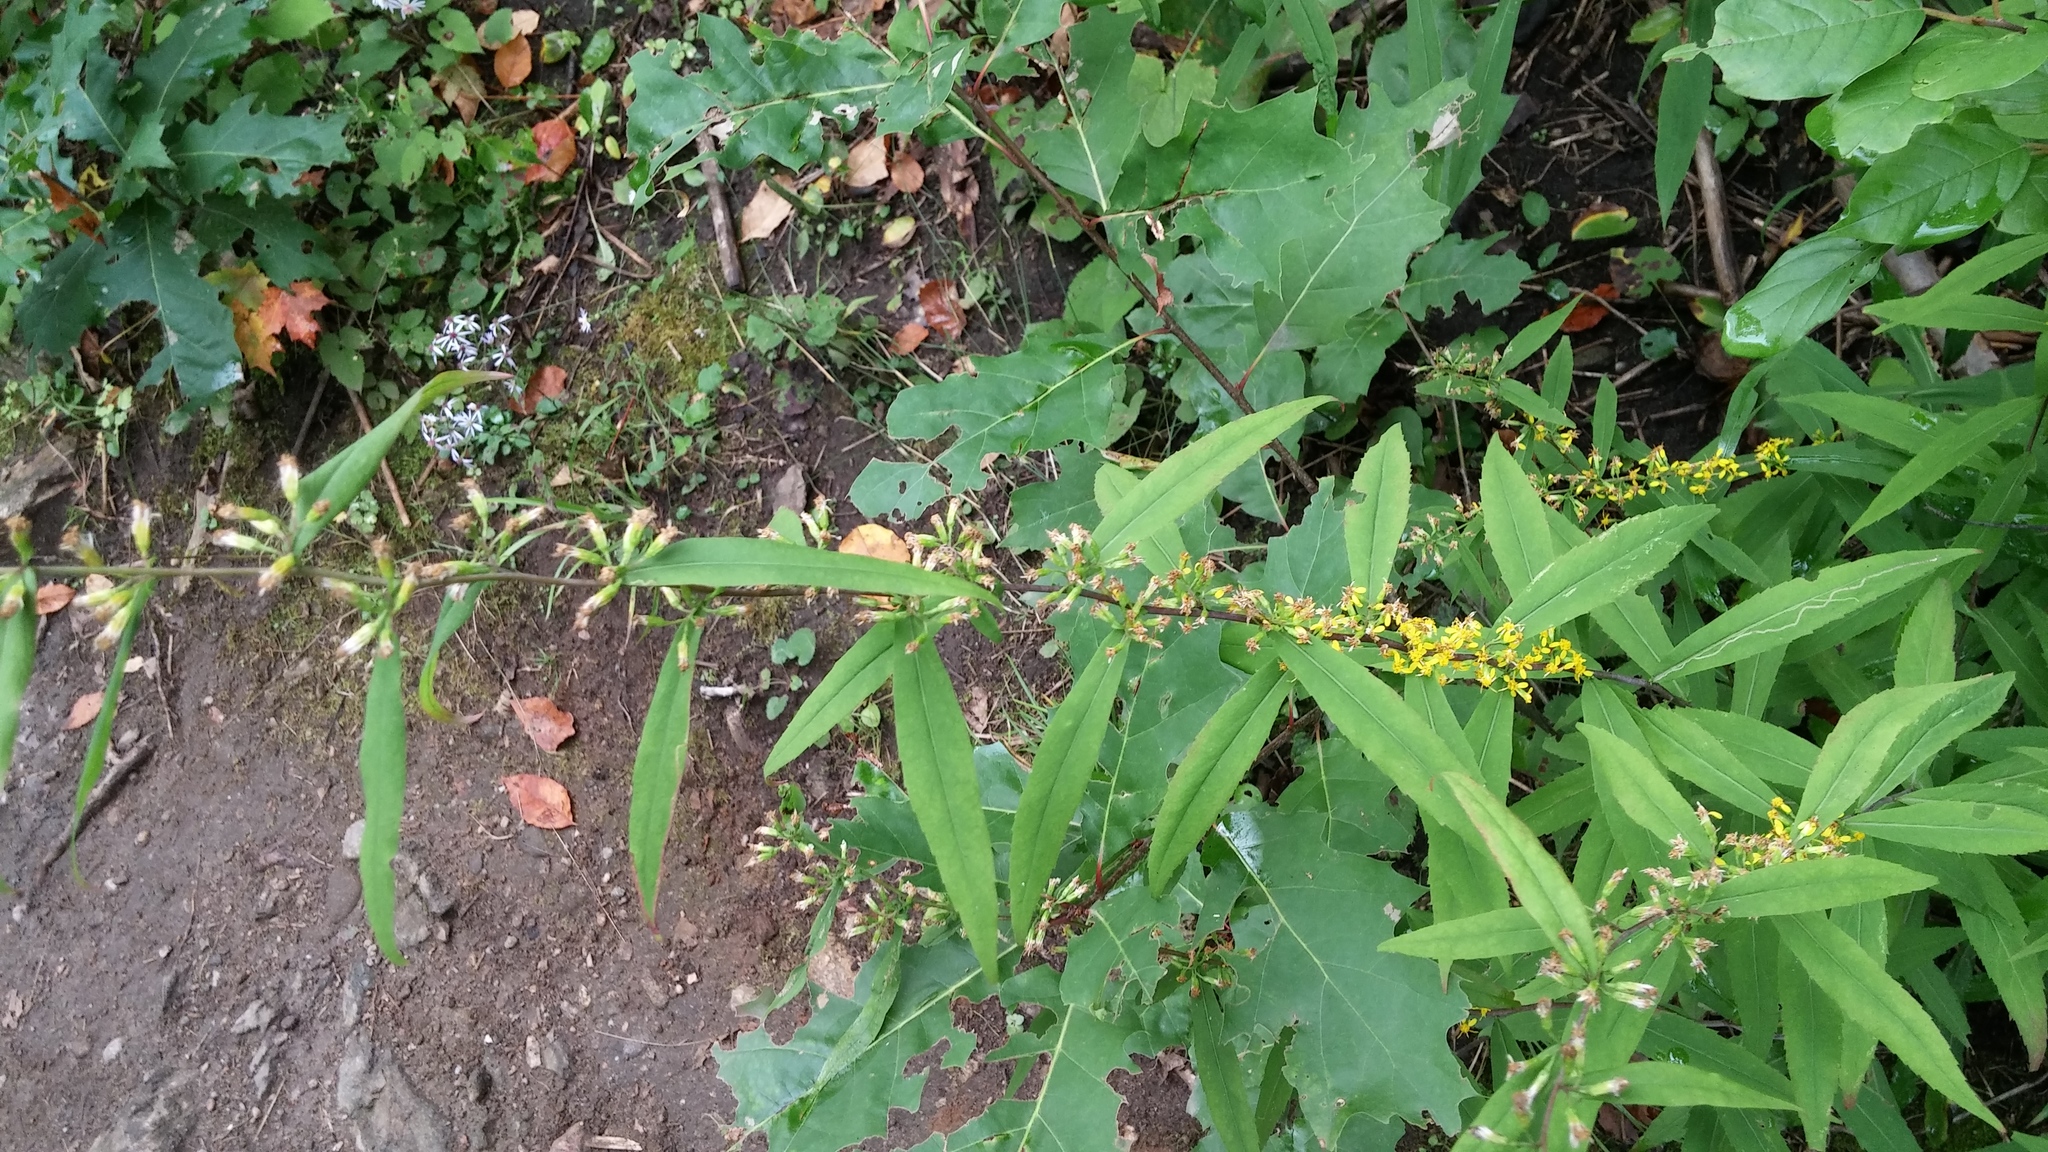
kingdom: Plantae
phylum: Tracheophyta
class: Magnoliopsida
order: Asterales
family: Asteraceae
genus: Solidago
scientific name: Solidago caesia
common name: Woodland goldenrod
